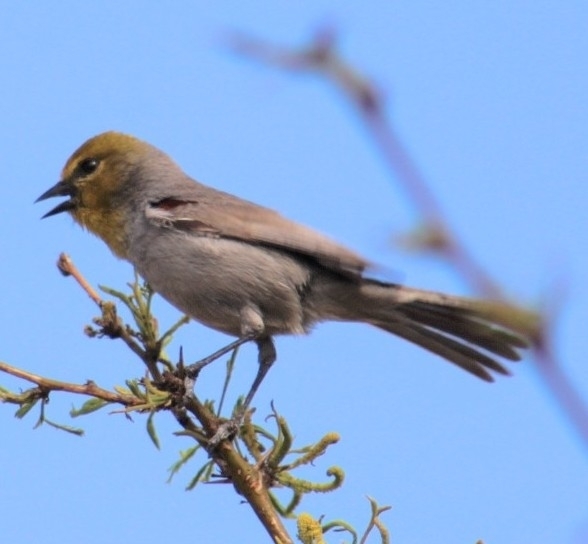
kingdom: Animalia
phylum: Chordata
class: Aves
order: Passeriformes
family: Remizidae
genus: Auriparus
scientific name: Auriparus flaviceps
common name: Verdin
